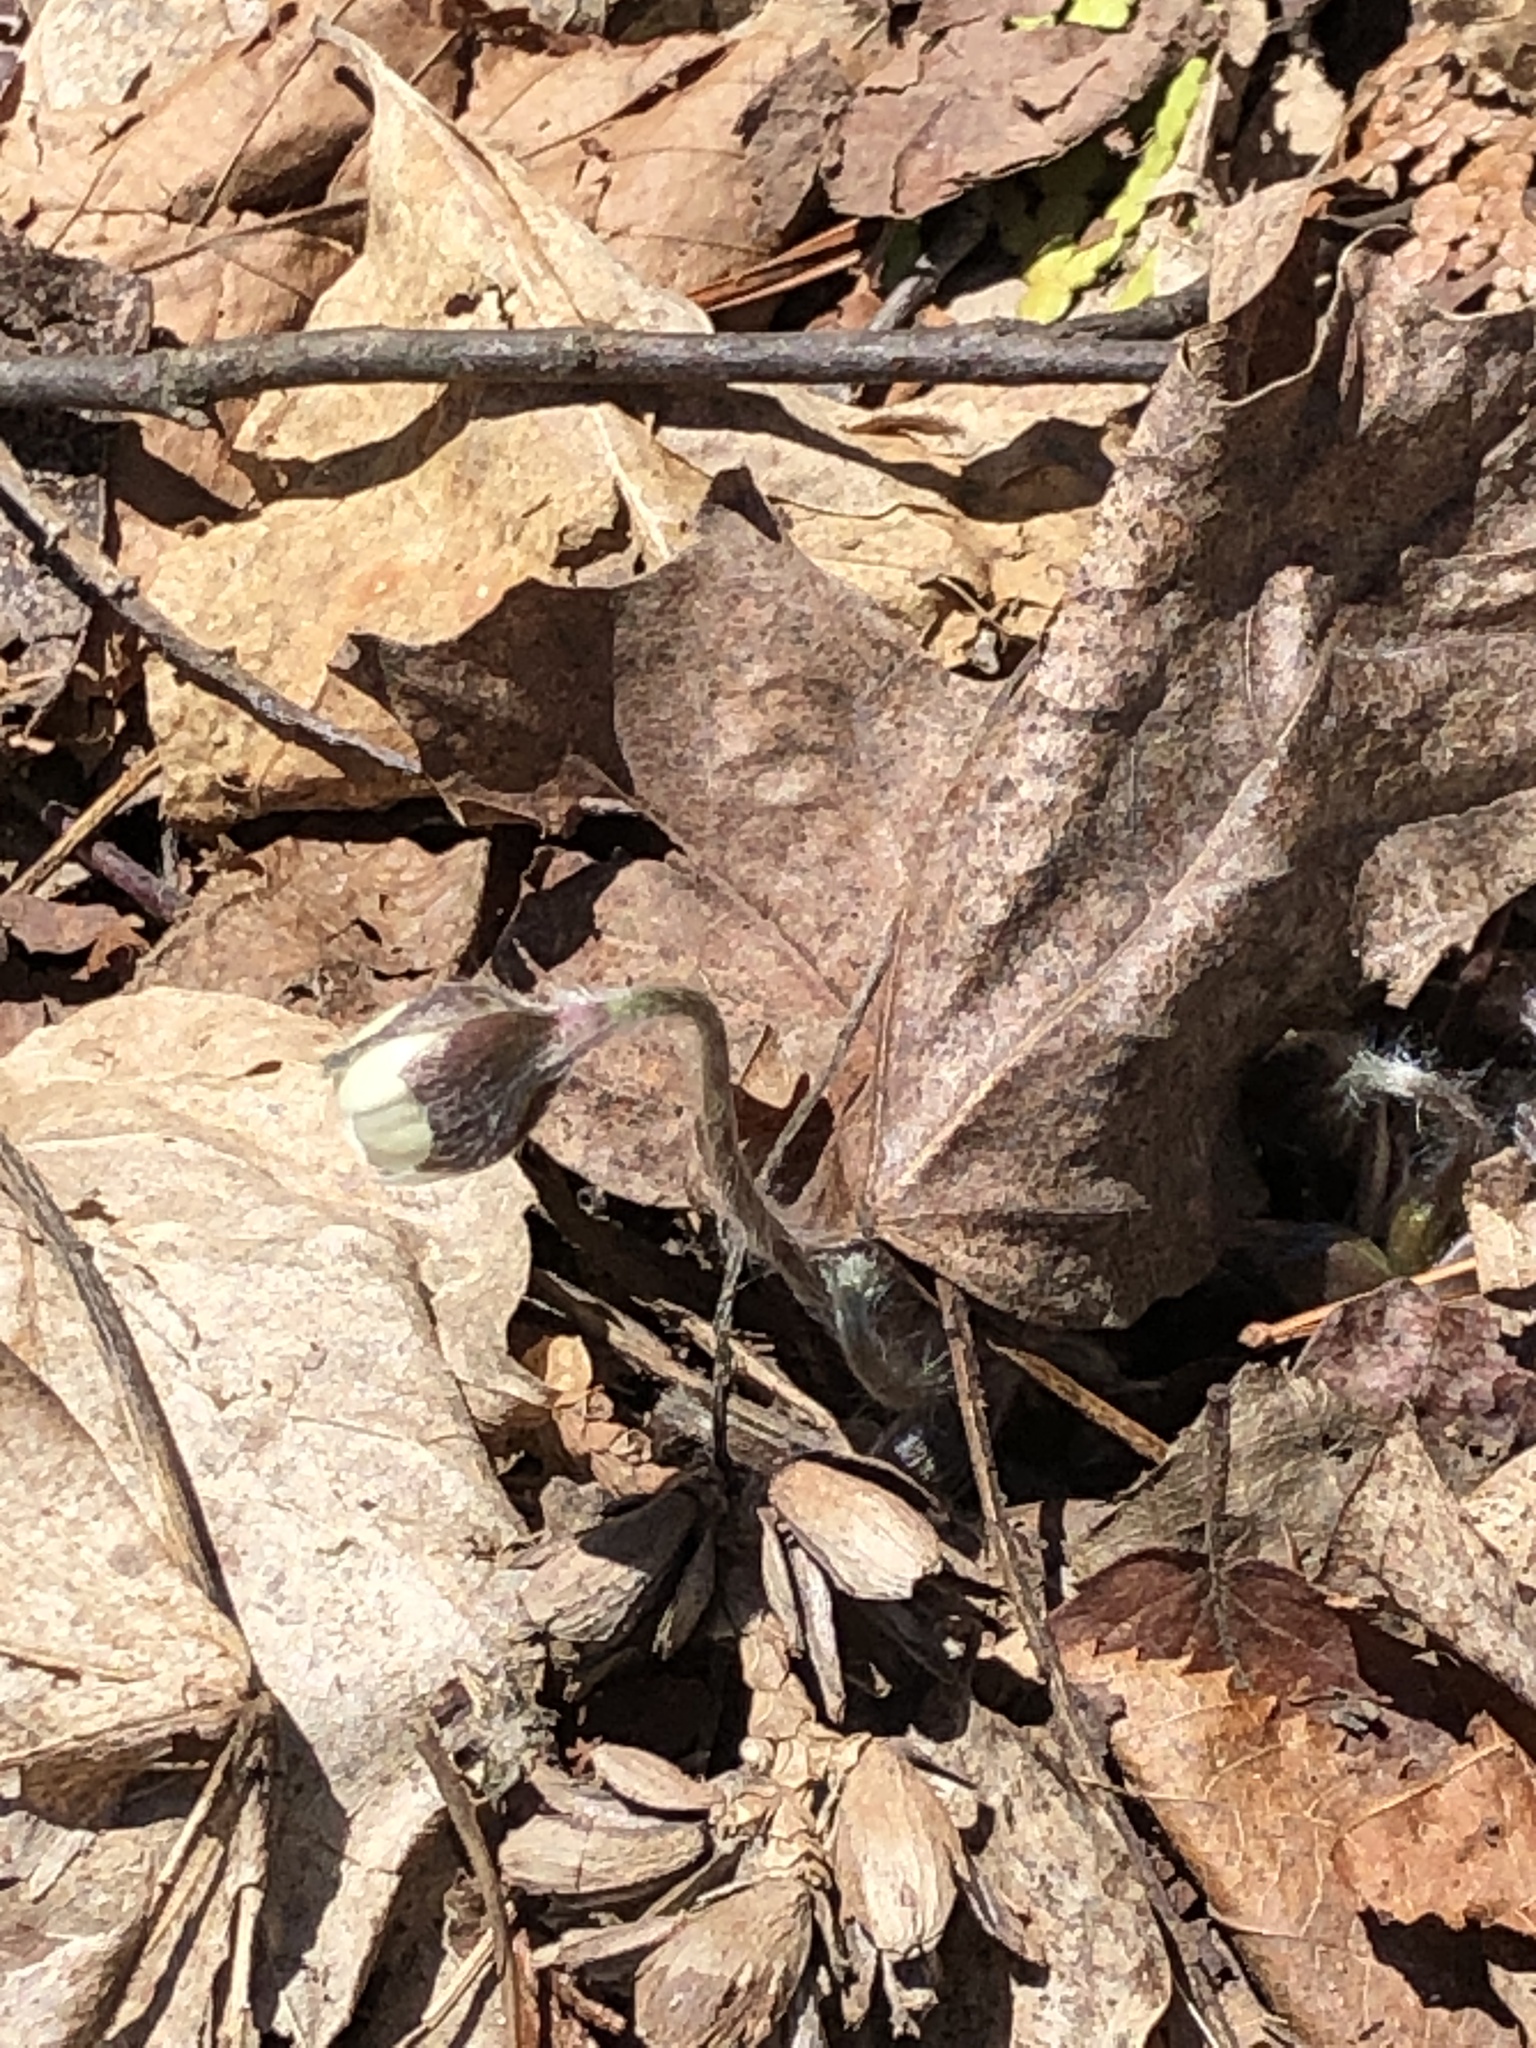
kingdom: Plantae
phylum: Tracheophyta
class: Magnoliopsida
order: Ranunculales
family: Ranunculaceae
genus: Hepatica
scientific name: Hepatica acutiloba
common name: Sharp-lobed hepatica
